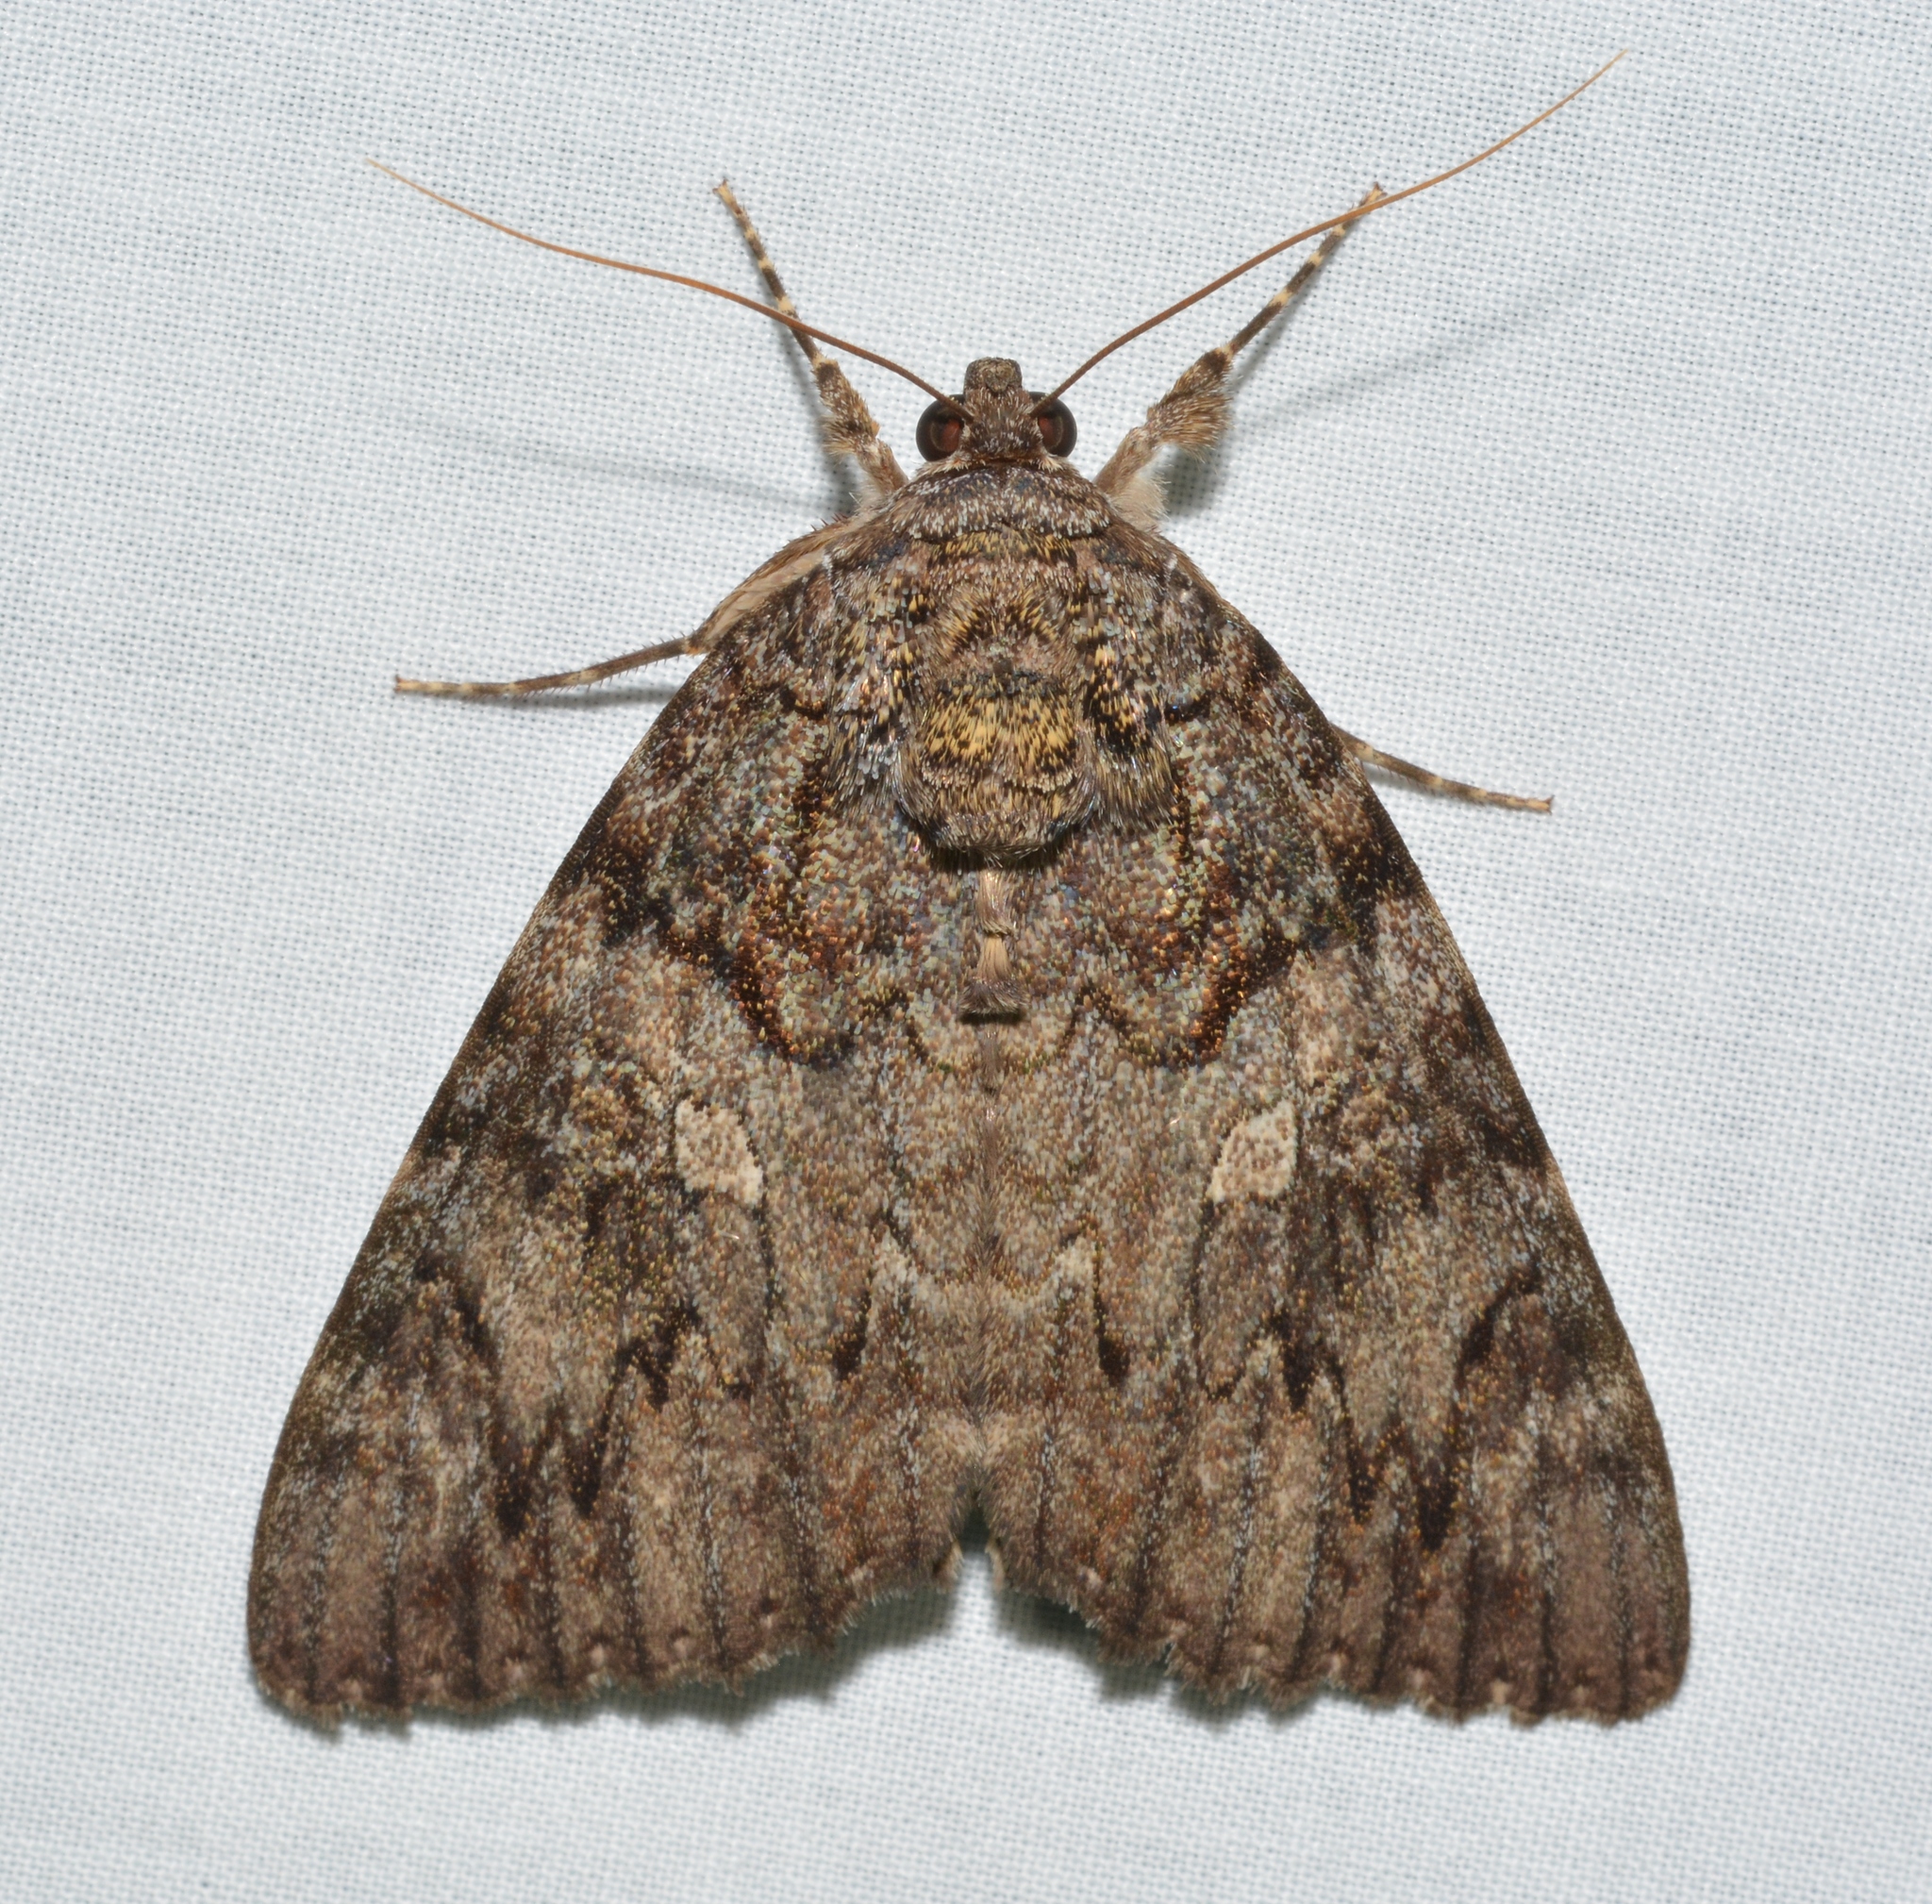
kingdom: Animalia
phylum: Arthropoda
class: Insecta
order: Lepidoptera
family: Erebidae
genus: Catocala
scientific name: Catocala umbrosa
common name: Umber underwing
